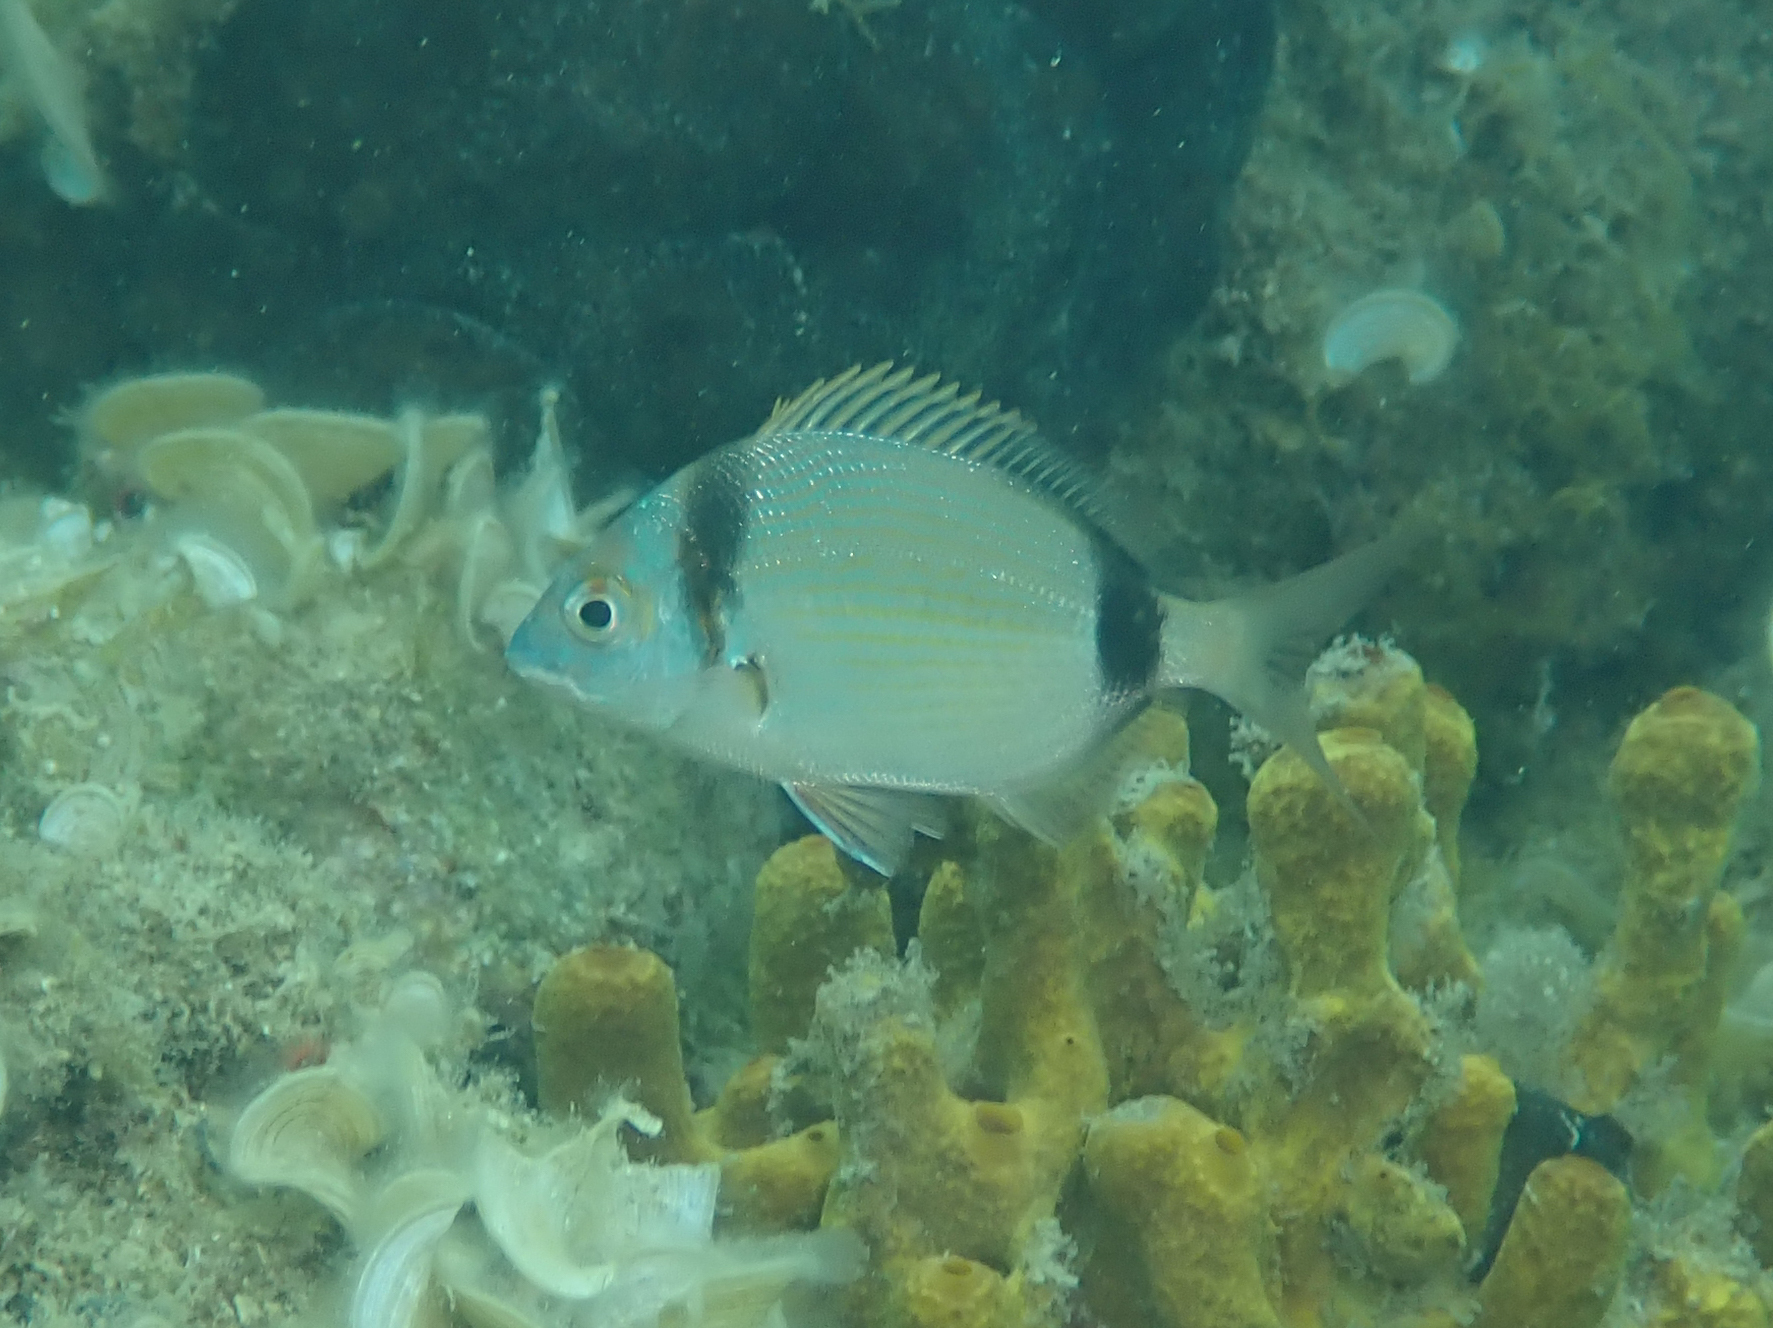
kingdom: Animalia
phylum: Chordata
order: Perciformes
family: Sparidae
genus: Diplodus
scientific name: Diplodus vulgaris
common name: Common two-banded seabream
